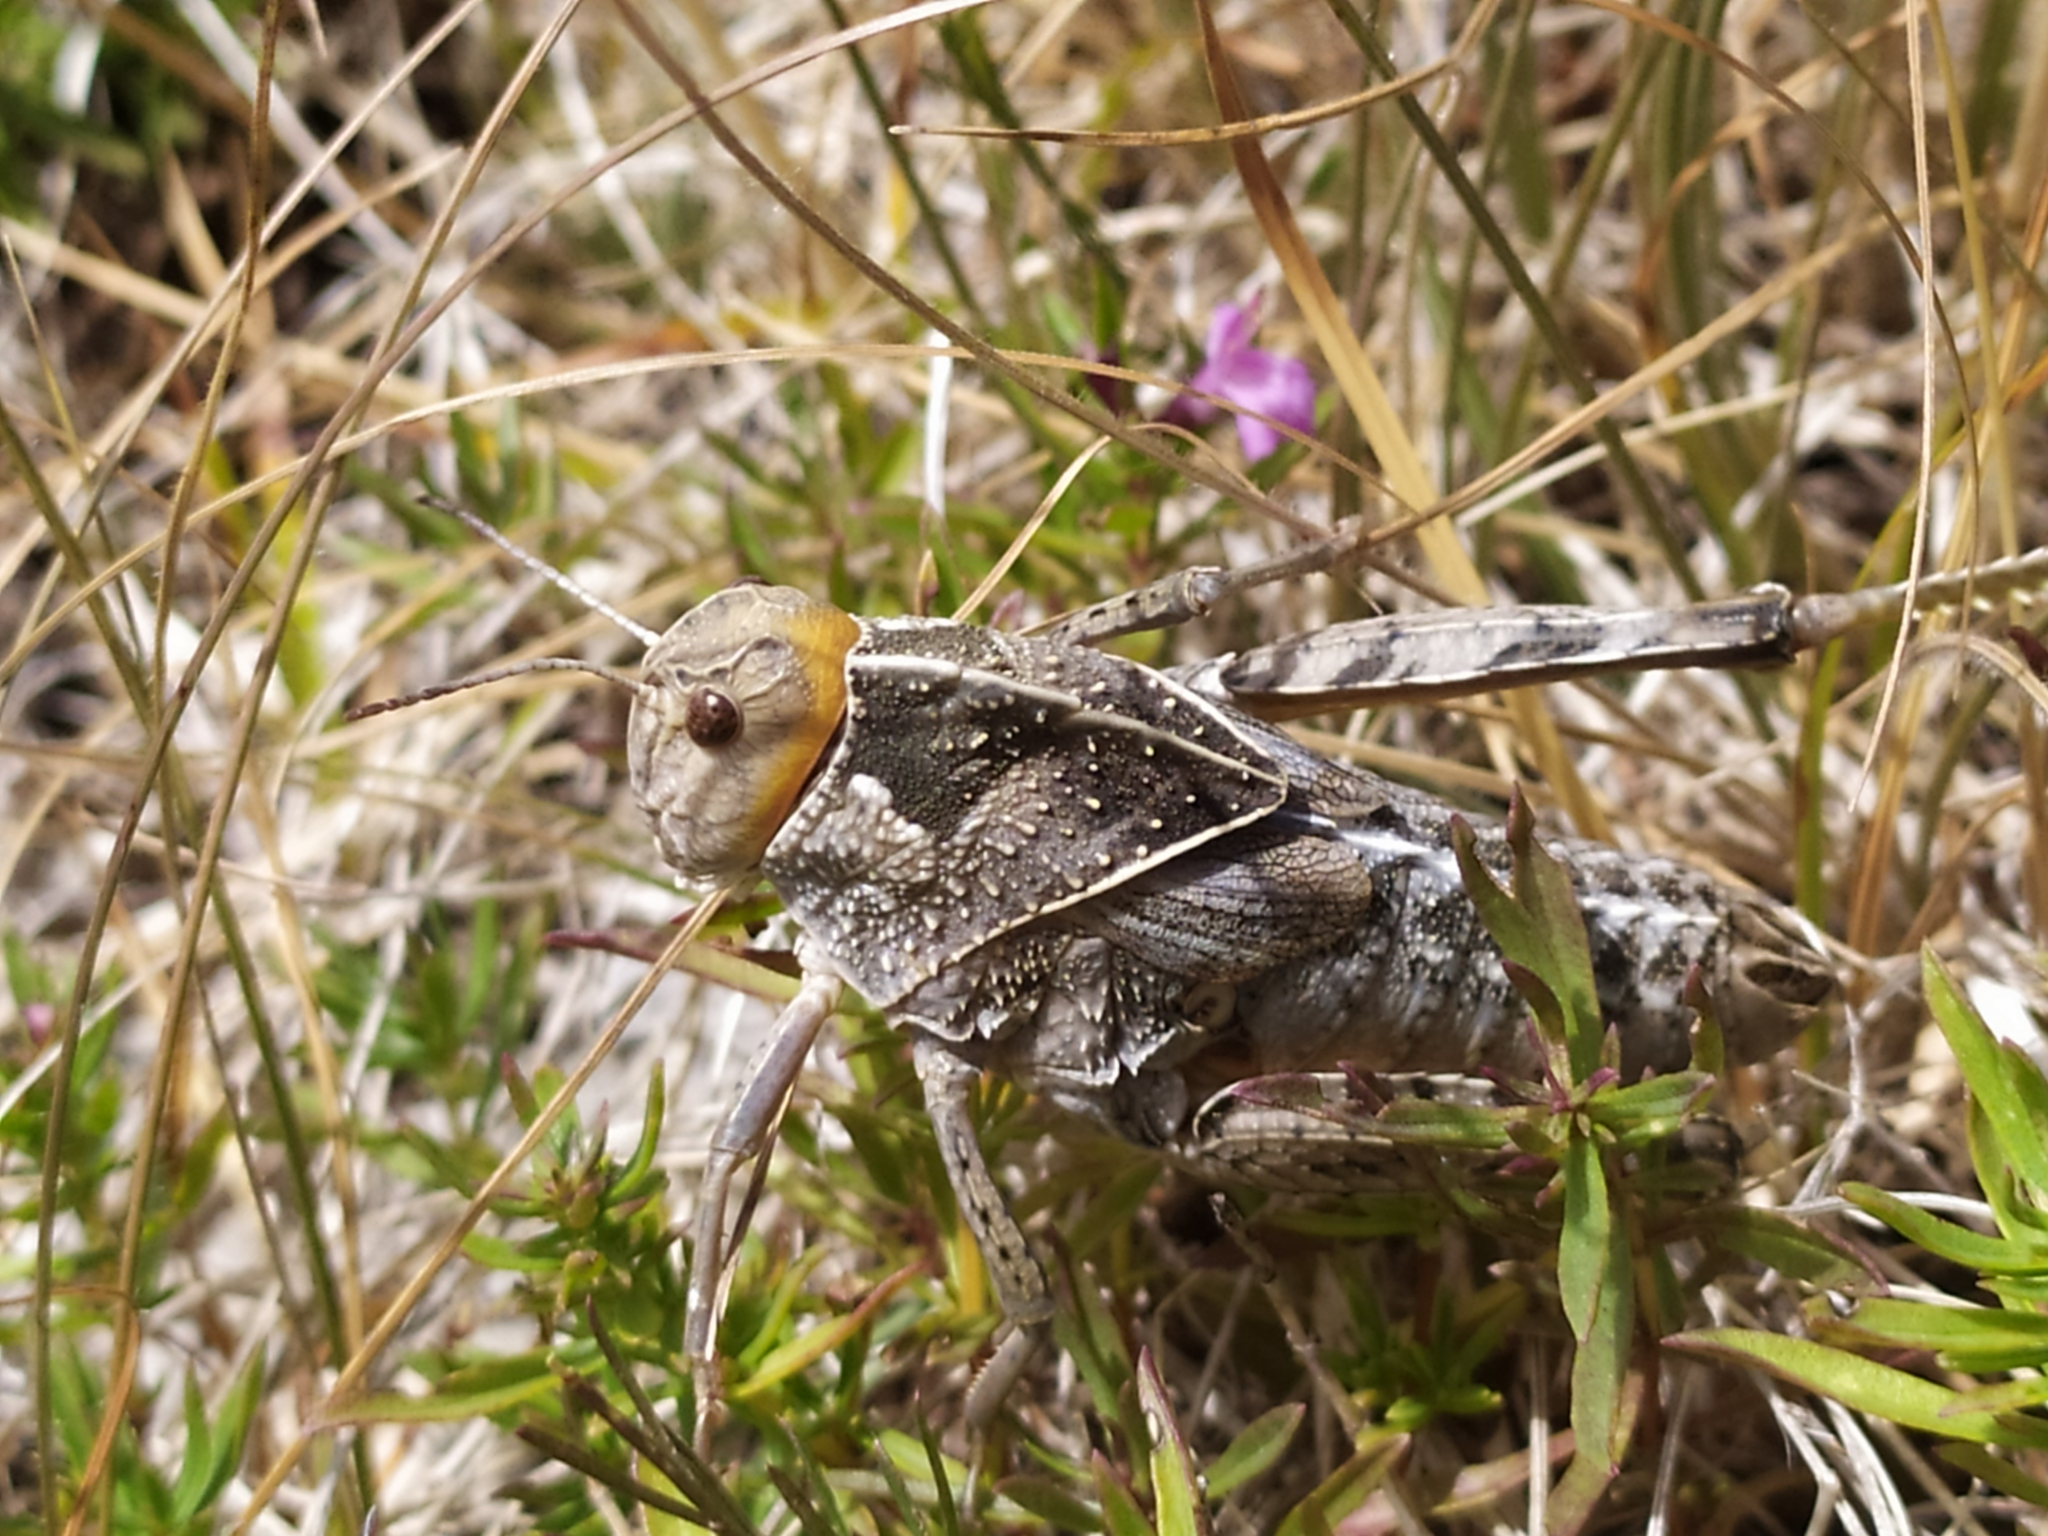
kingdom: Animalia
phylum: Arthropoda
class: Insecta
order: Orthoptera
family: Pamphagidae
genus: Prionotropis
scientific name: Prionotropis hystrix
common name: Eastern stone grasshopper
